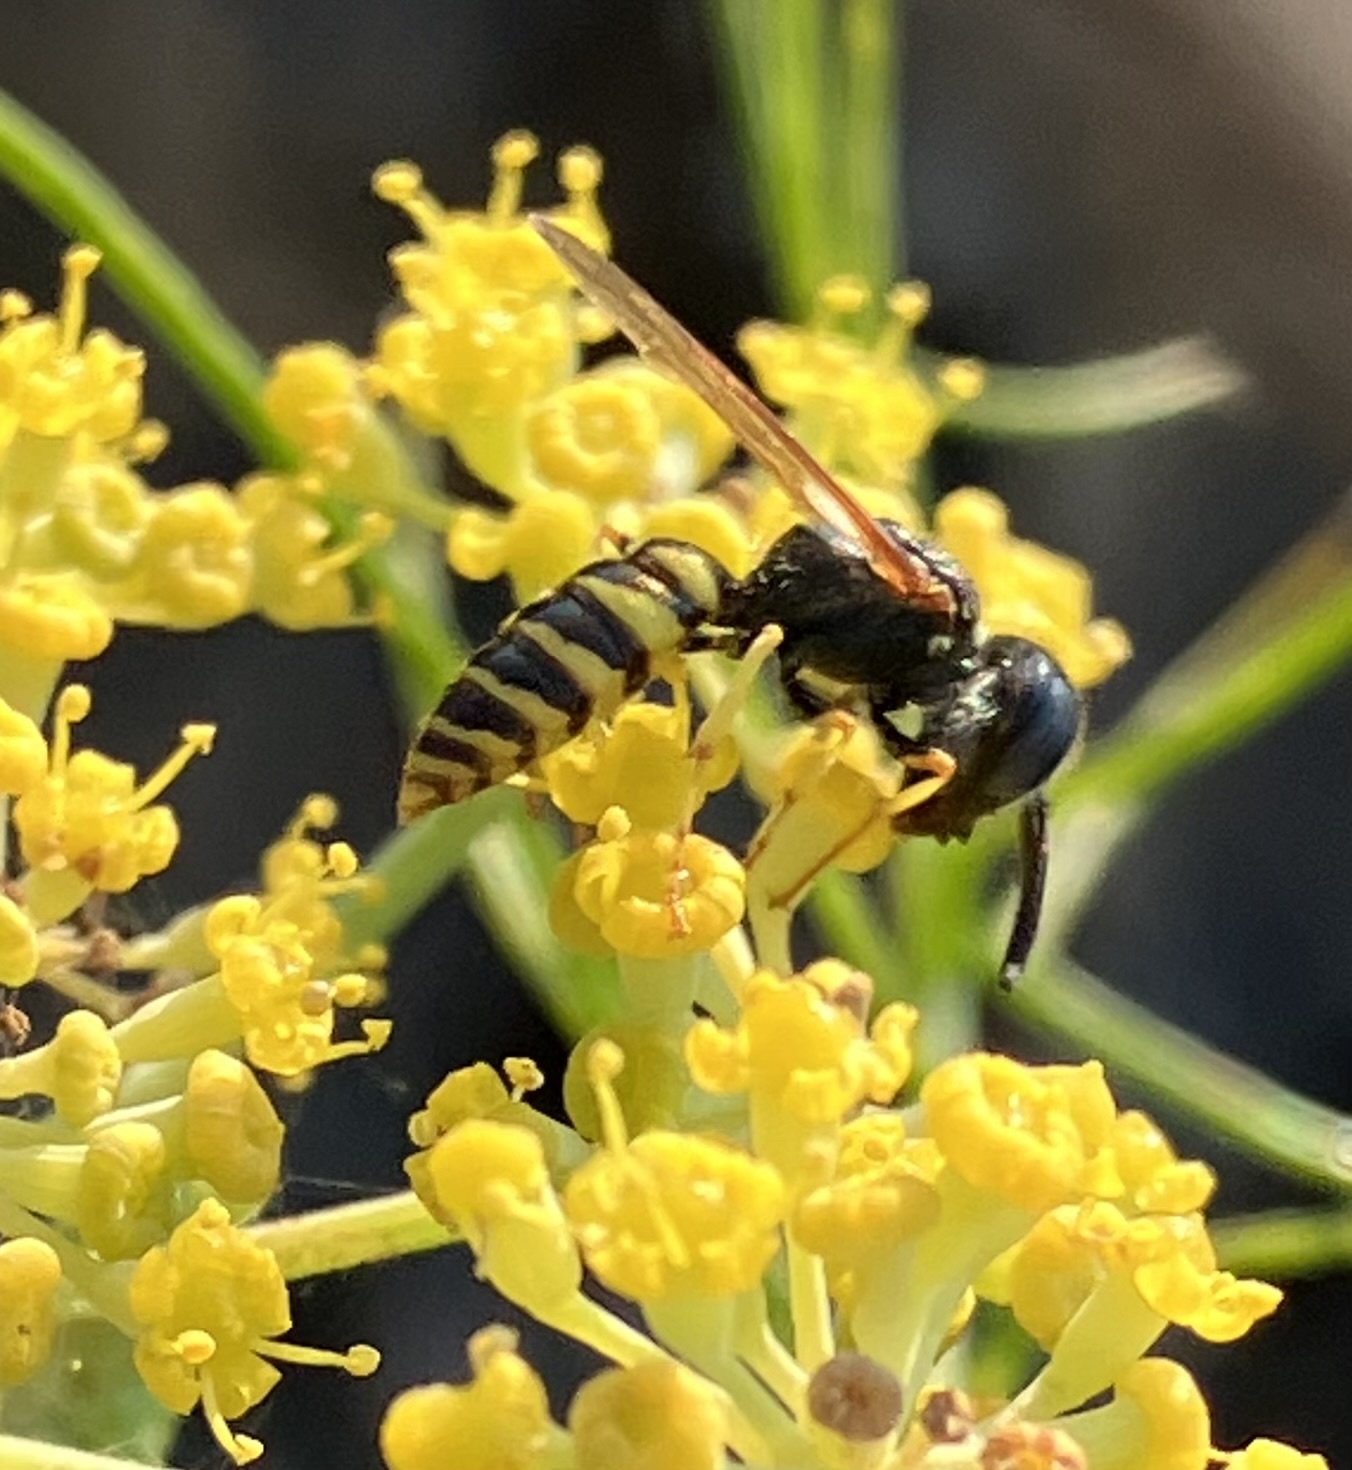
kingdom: Animalia
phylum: Arthropoda
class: Insecta
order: Hymenoptera
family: Crabronidae
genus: Philanthus
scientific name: Philanthus triangulum
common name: Bee wolf
